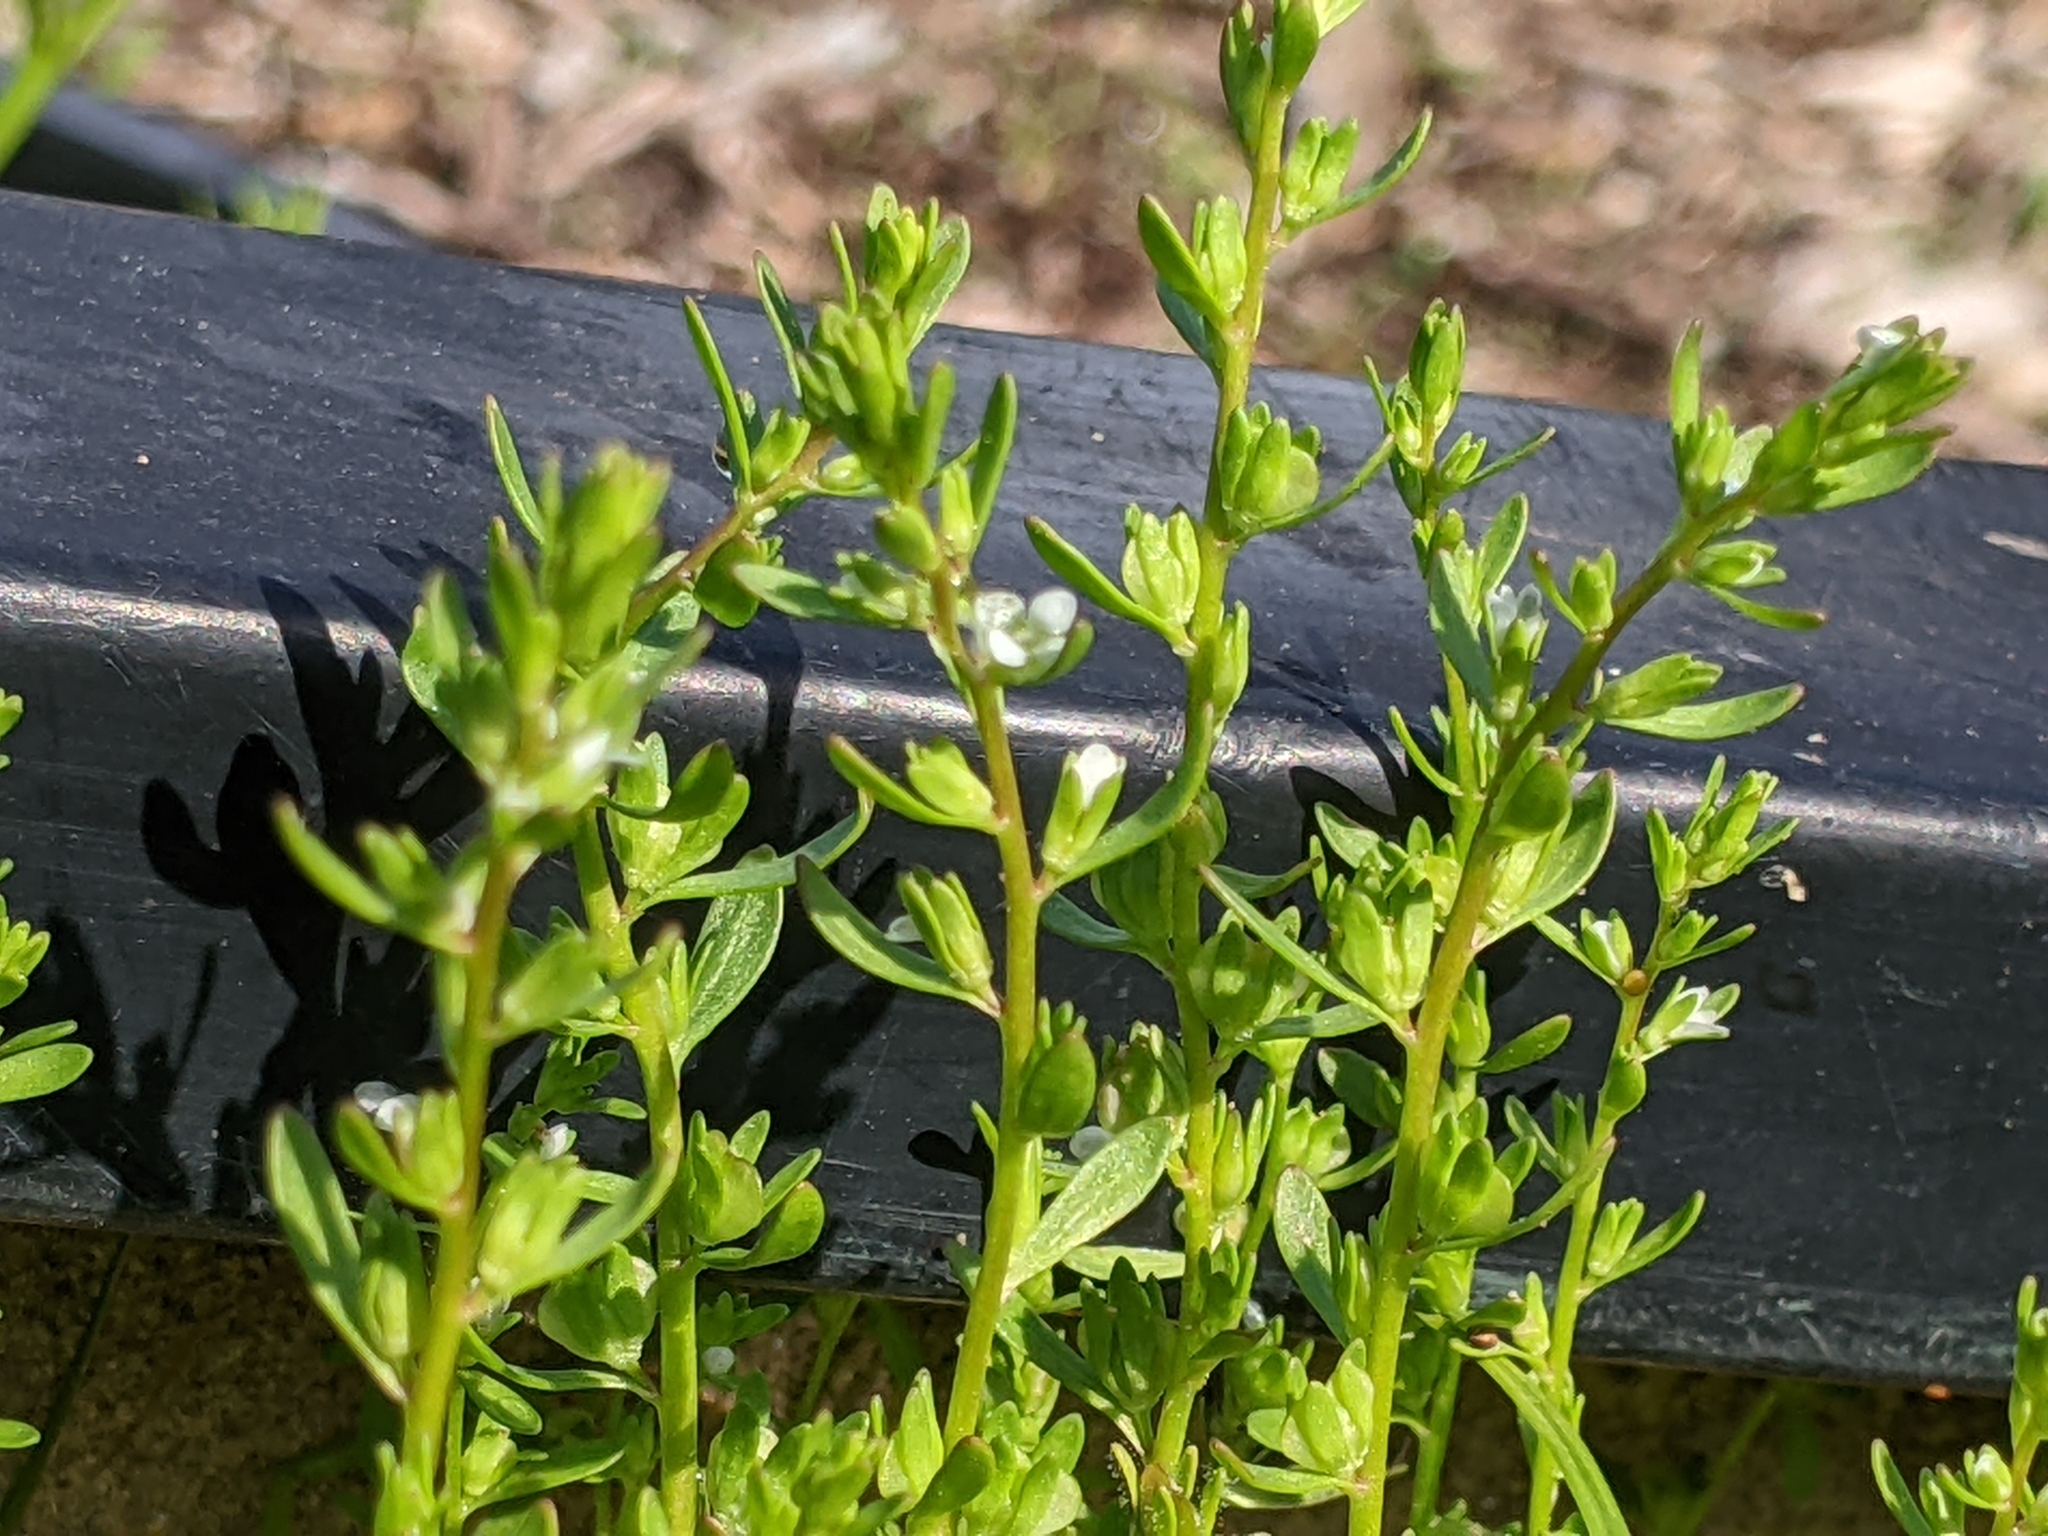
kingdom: Plantae
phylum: Tracheophyta
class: Magnoliopsida
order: Lamiales
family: Plantaginaceae
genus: Veronica
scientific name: Veronica peregrina
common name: Neckweed
